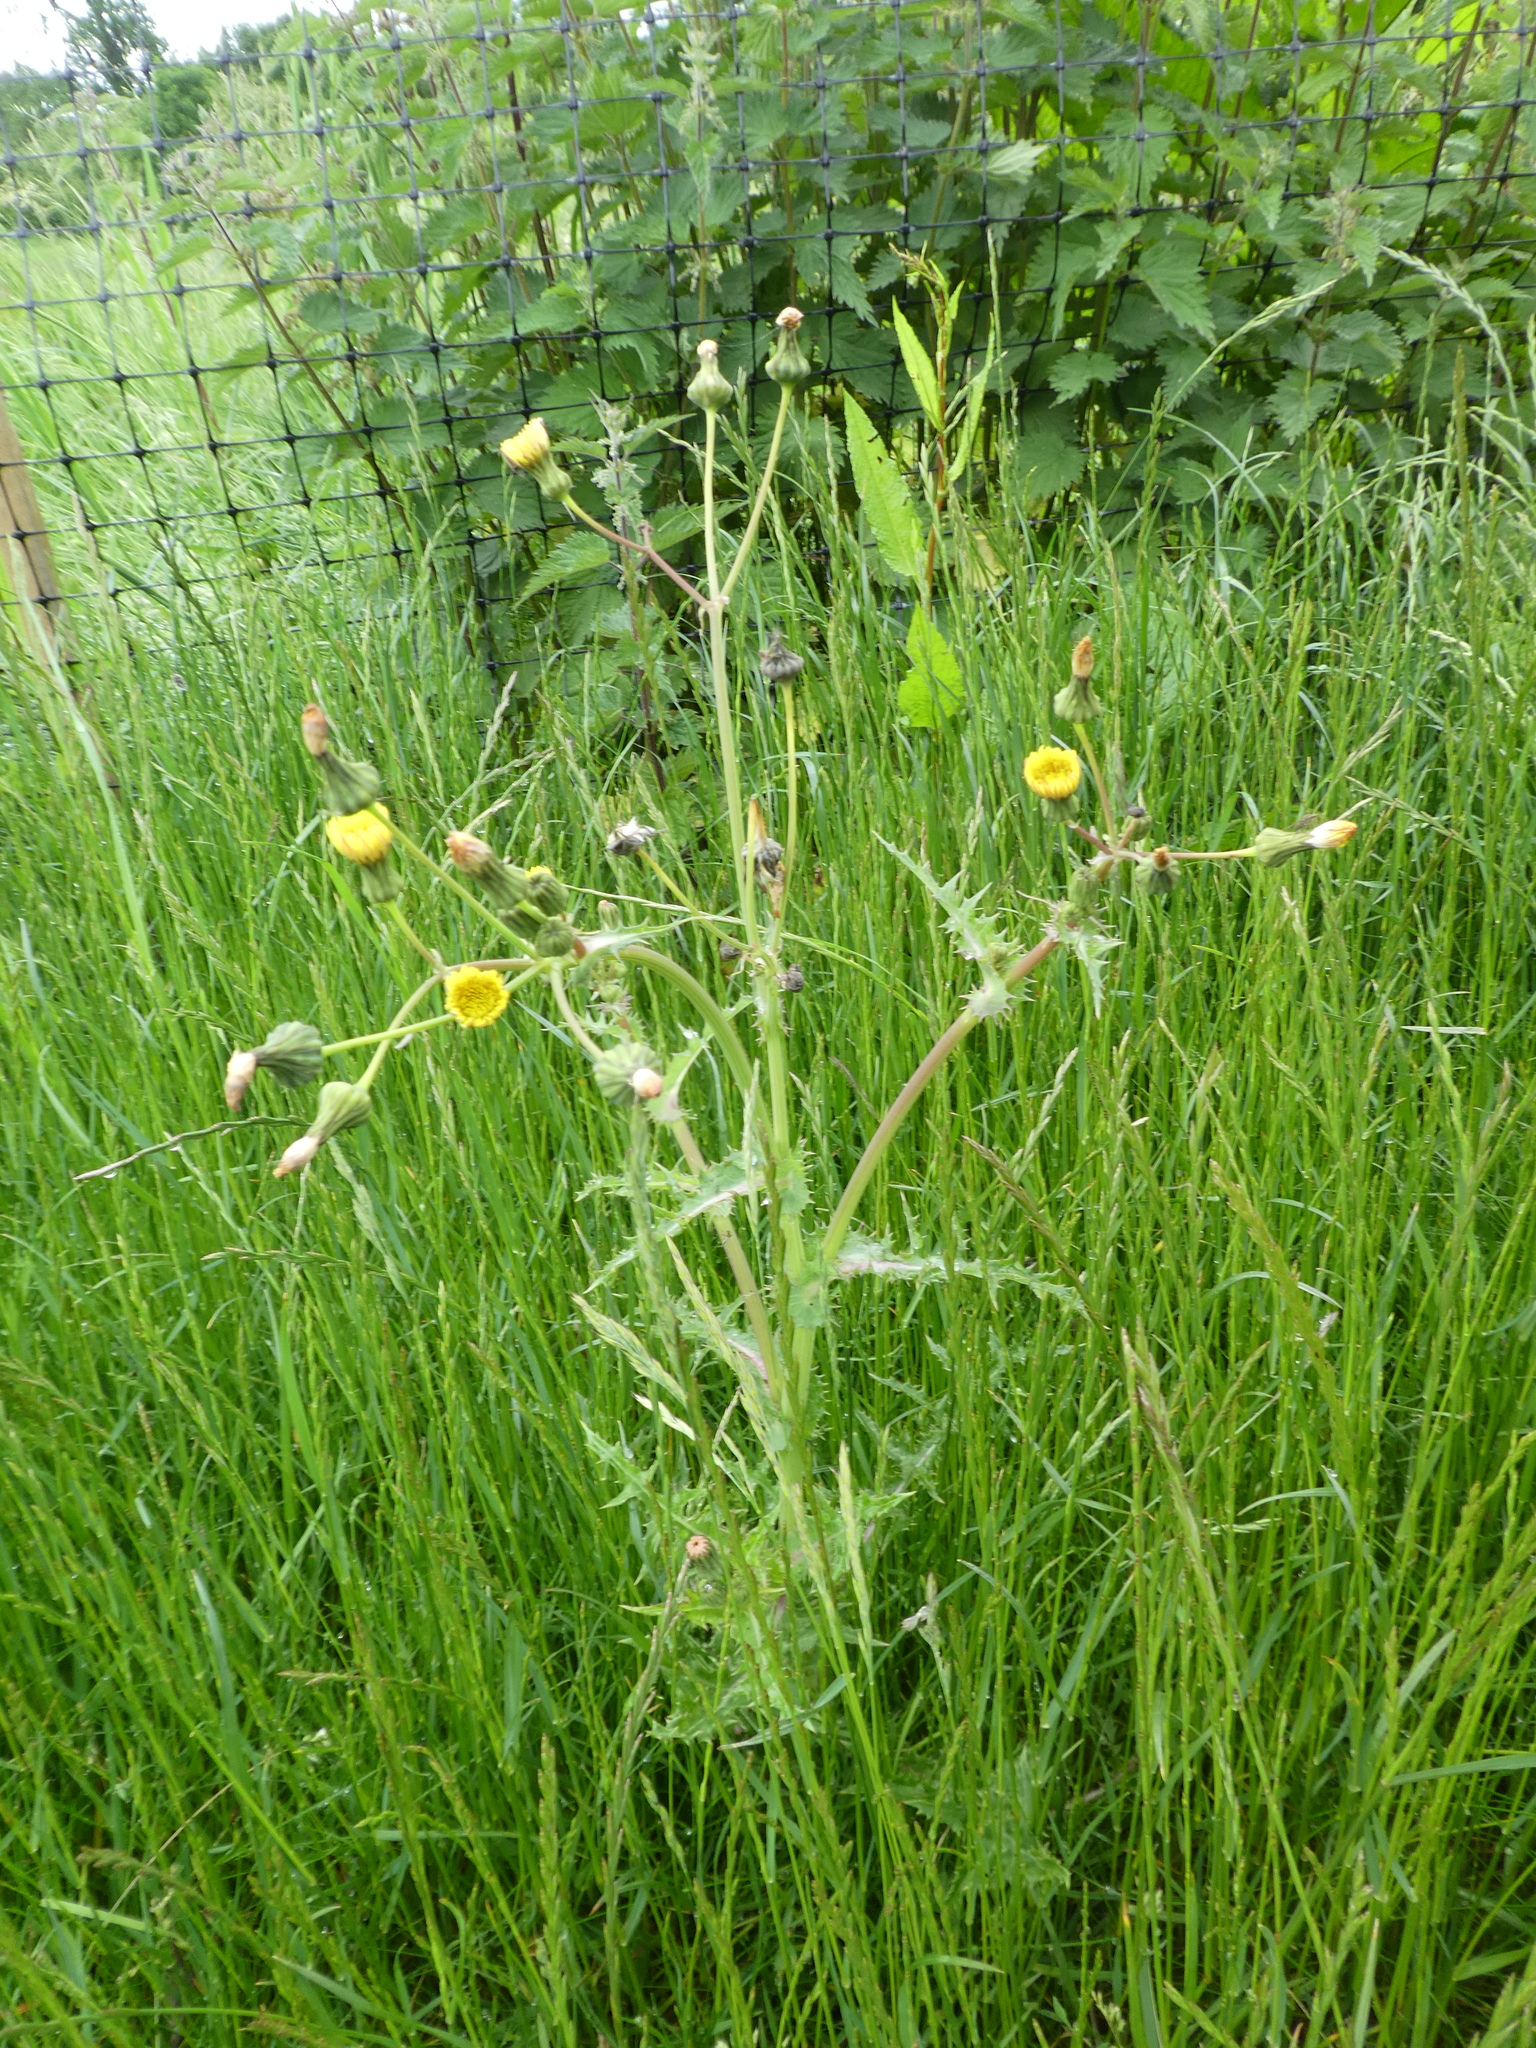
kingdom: Plantae
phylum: Tracheophyta
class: Magnoliopsida
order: Asterales
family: Asteraceae
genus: Sonchus
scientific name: Sonchus asper
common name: Prickly sow-thistle
